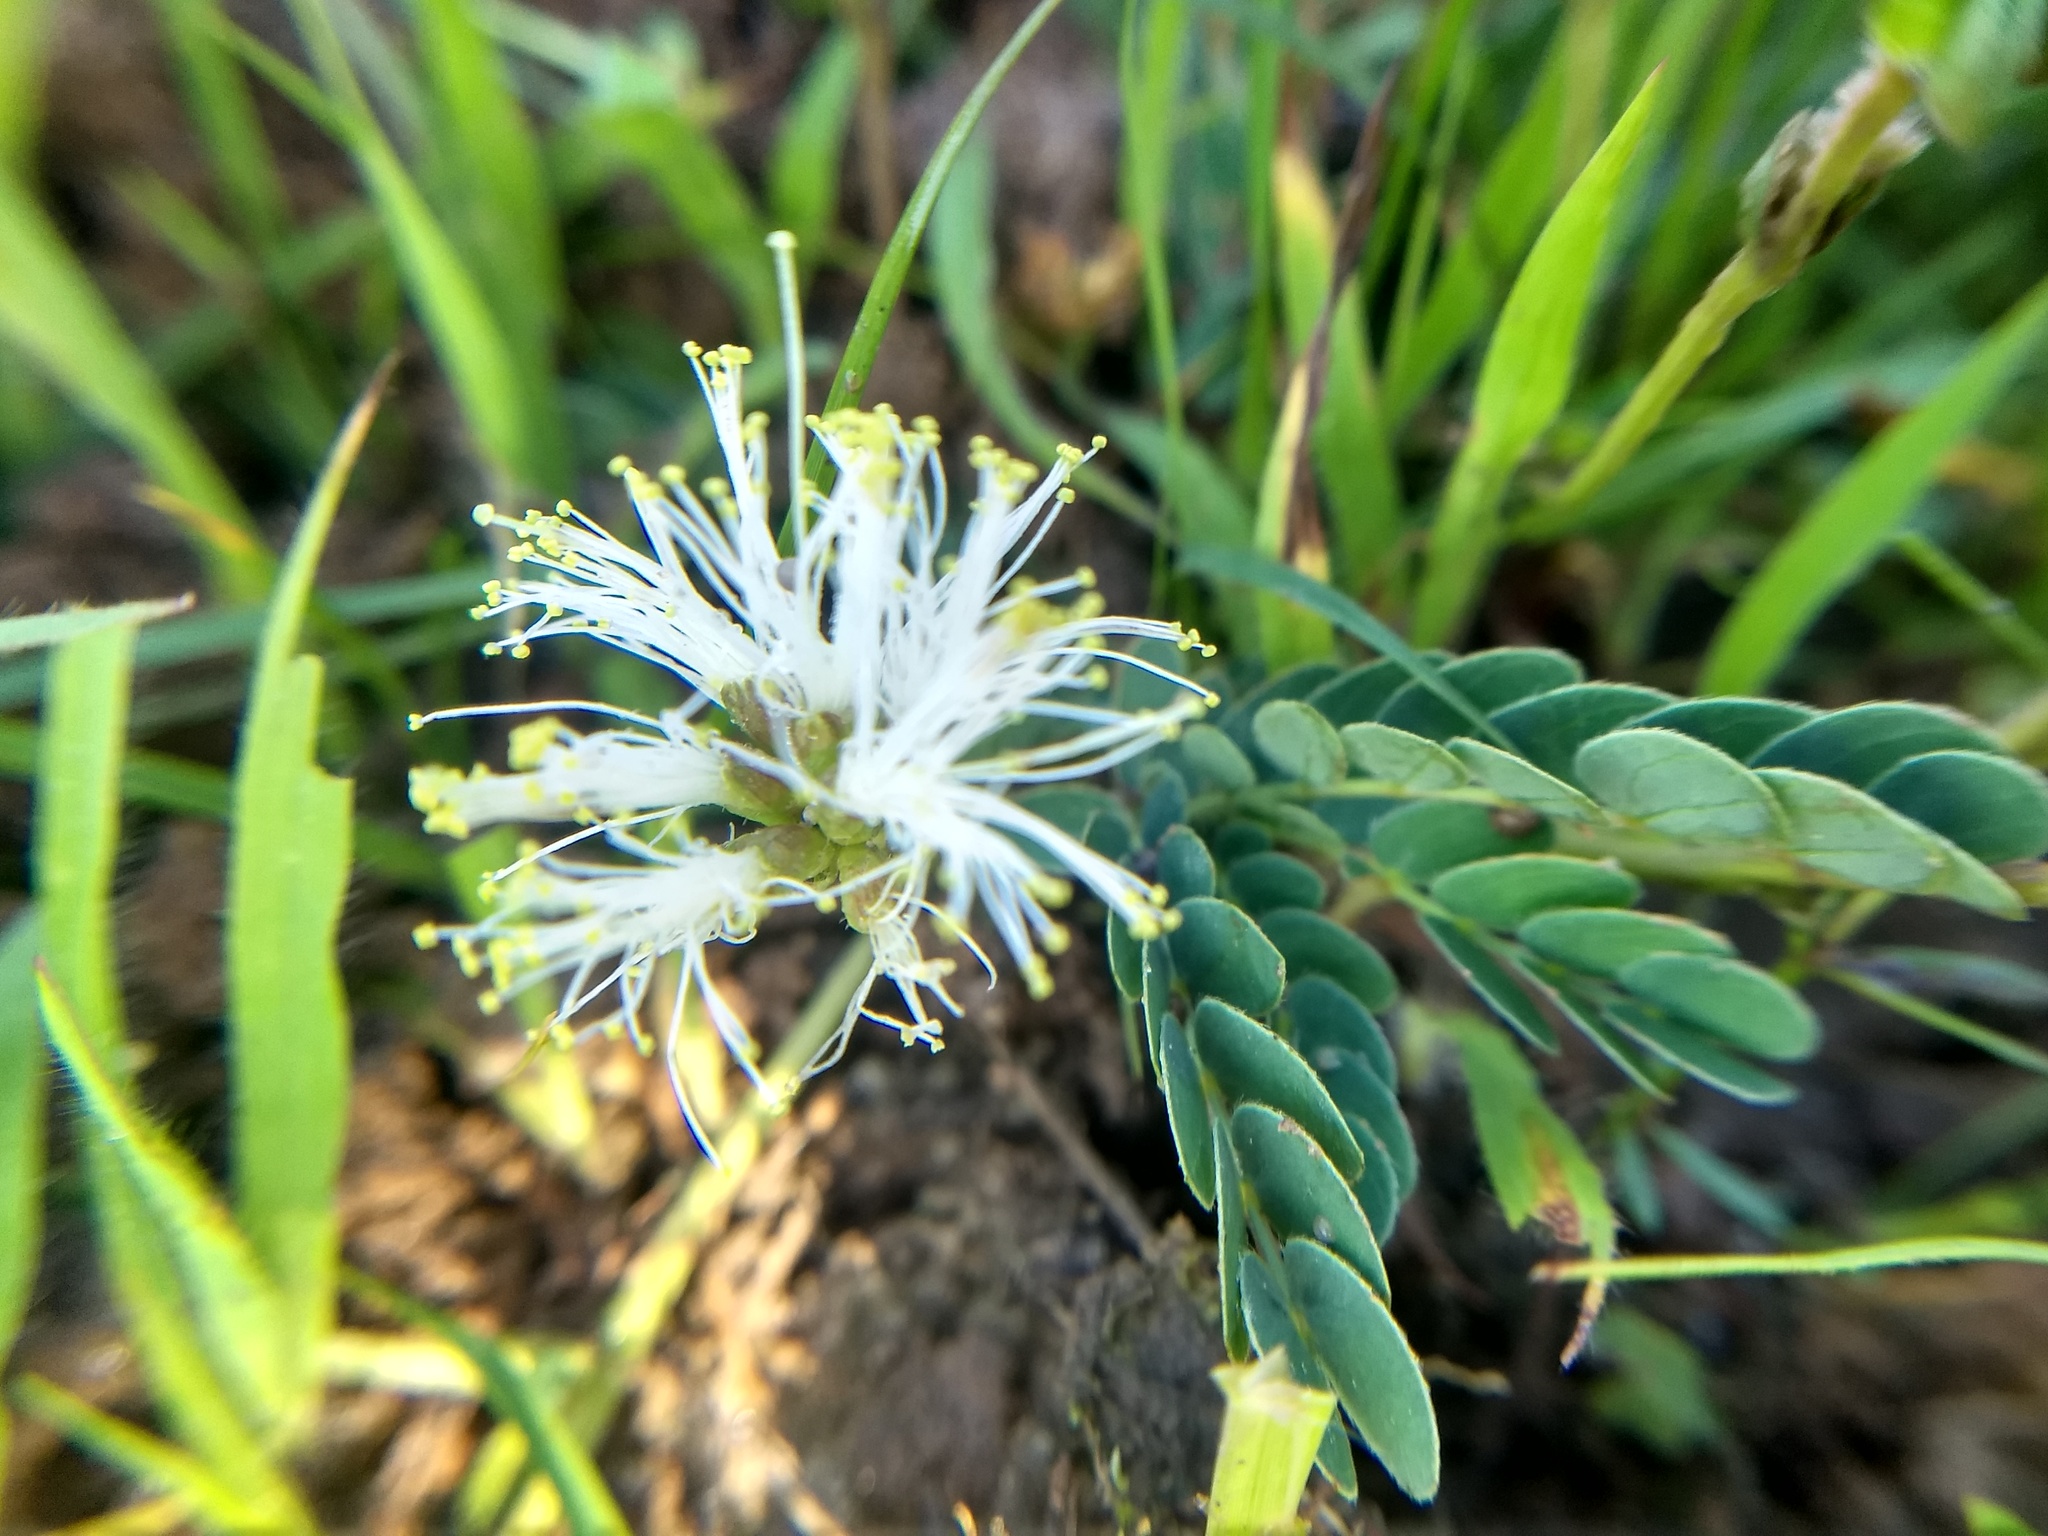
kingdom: Plantae
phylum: Tracheophyta
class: Magnoliopsida
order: Fabales
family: Fabaceae
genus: Calliandra
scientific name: Calliandra humilis
